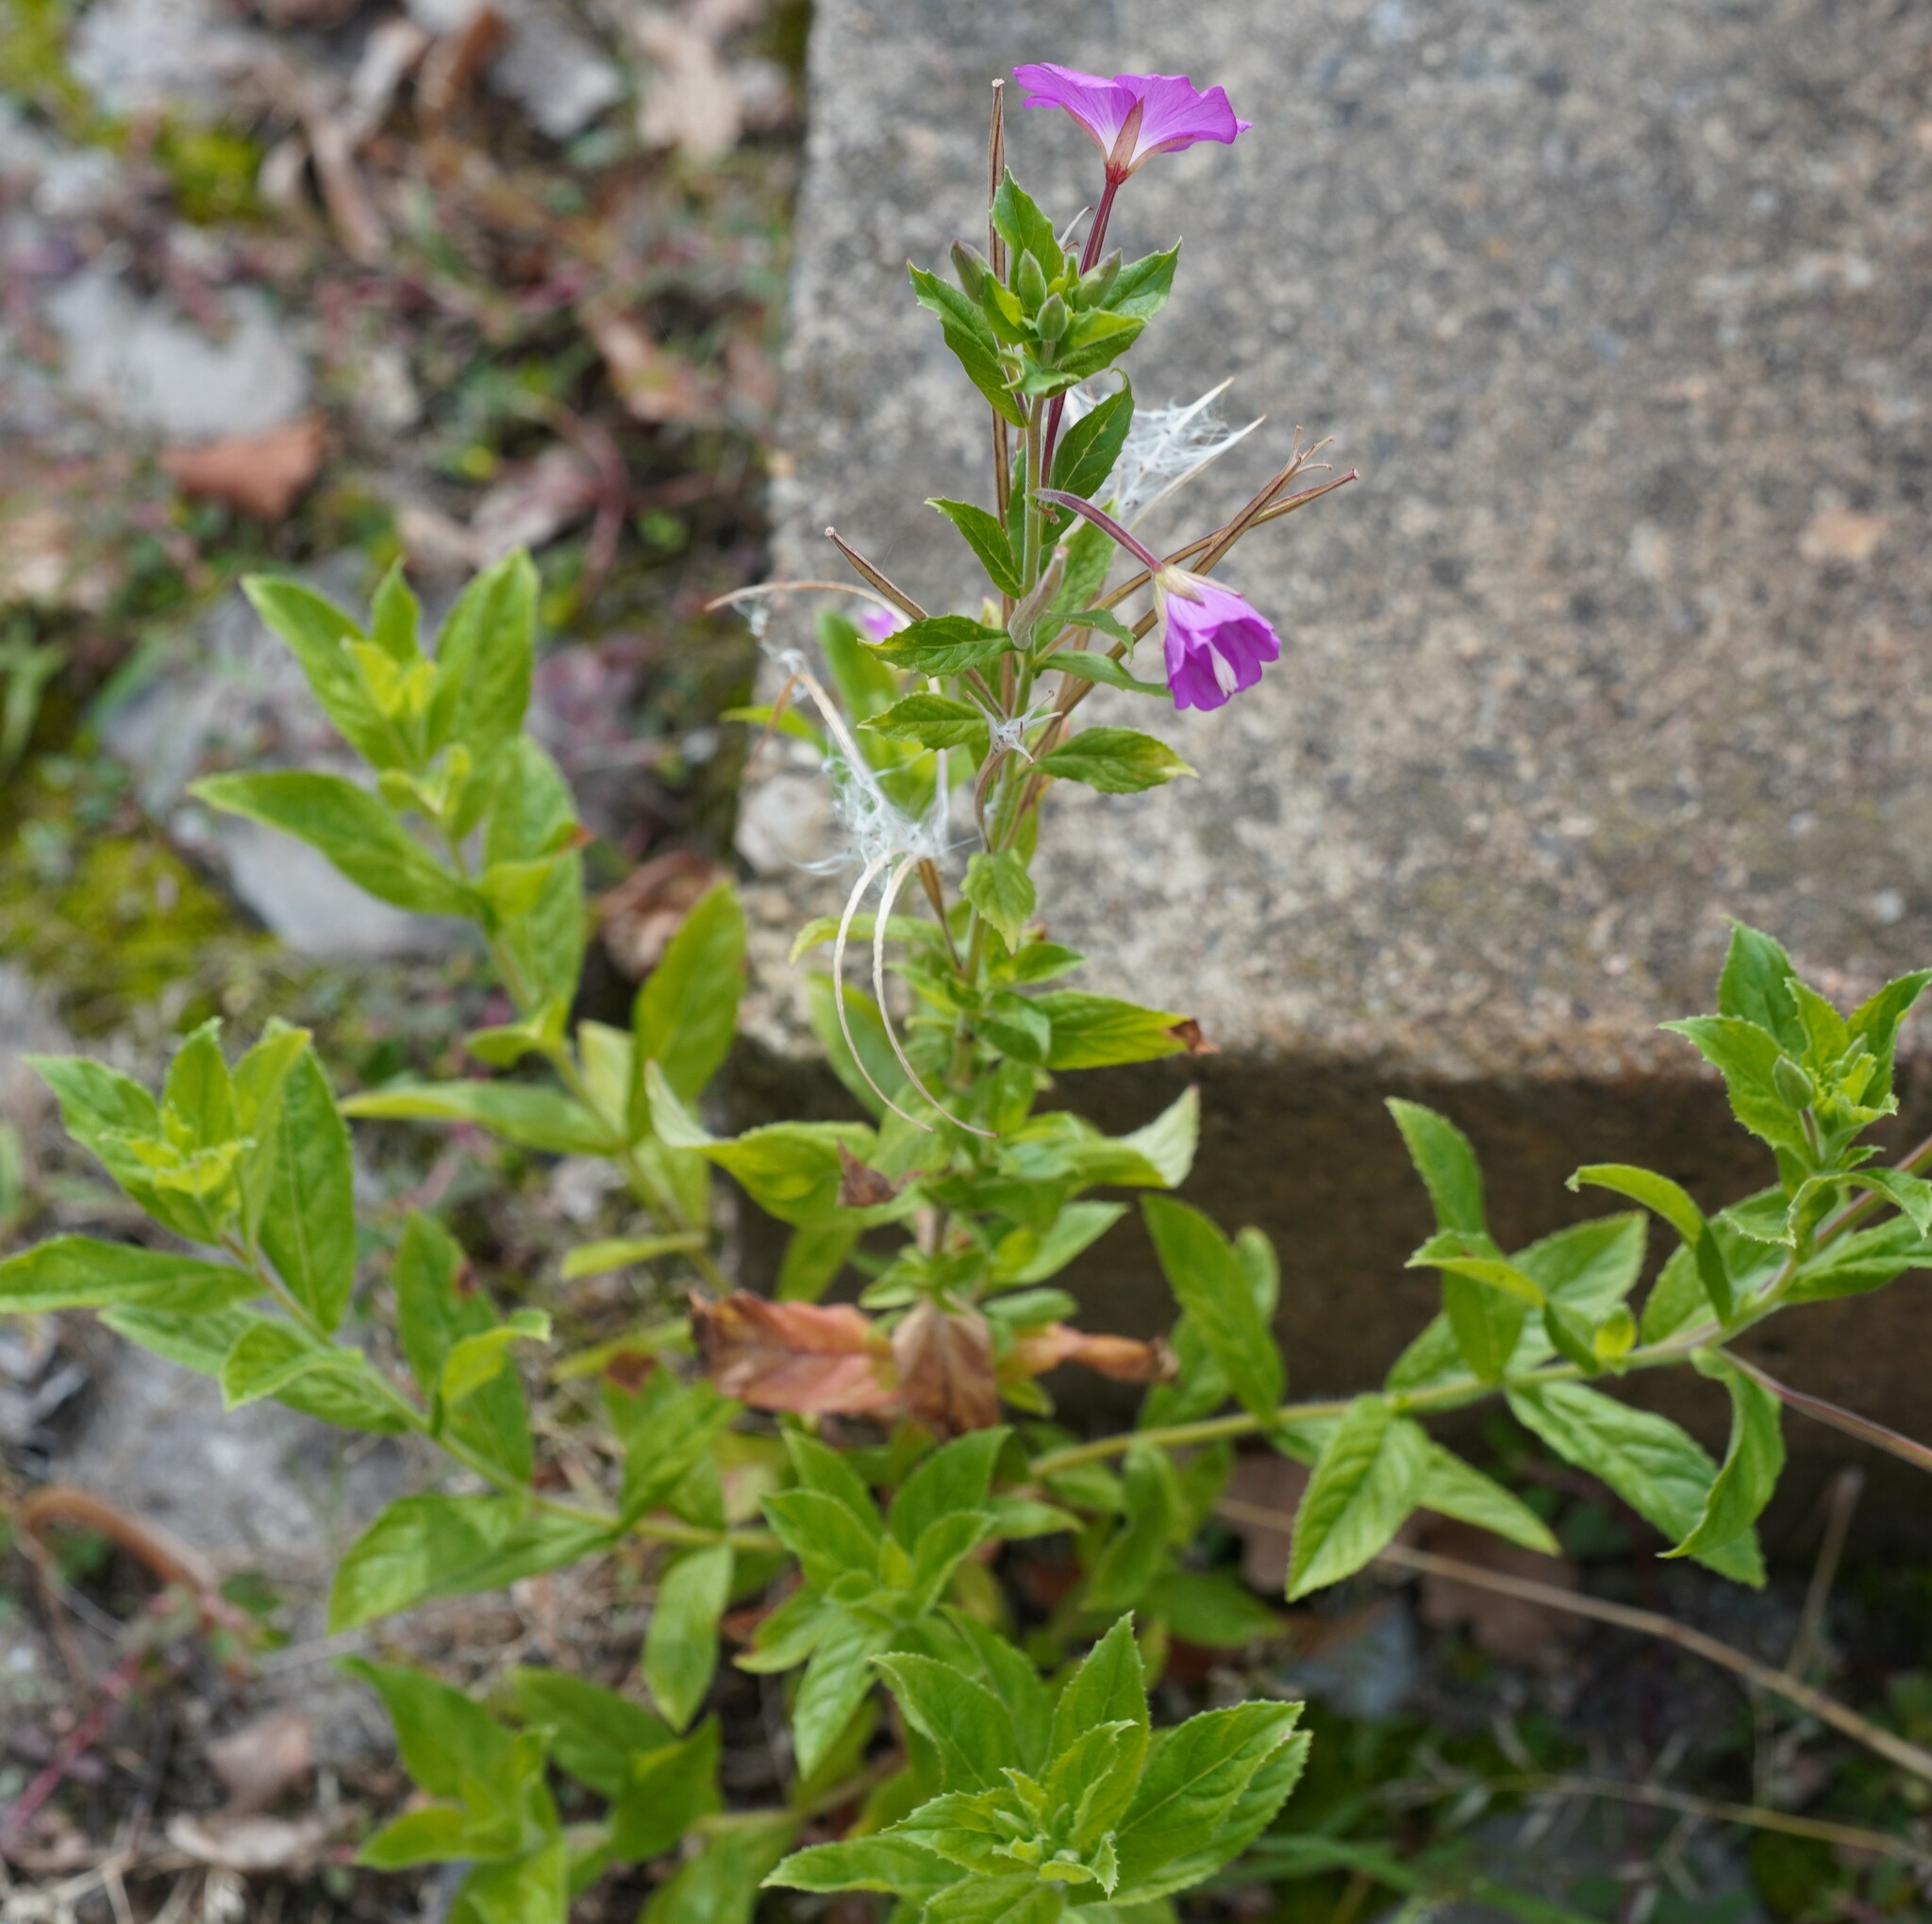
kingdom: Plantae
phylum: Tracheophyta
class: Magnoliopsida
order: Myrtales
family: Onagraceae
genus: Epilobium
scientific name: Epilobium hirsutum
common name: Great willowherb
